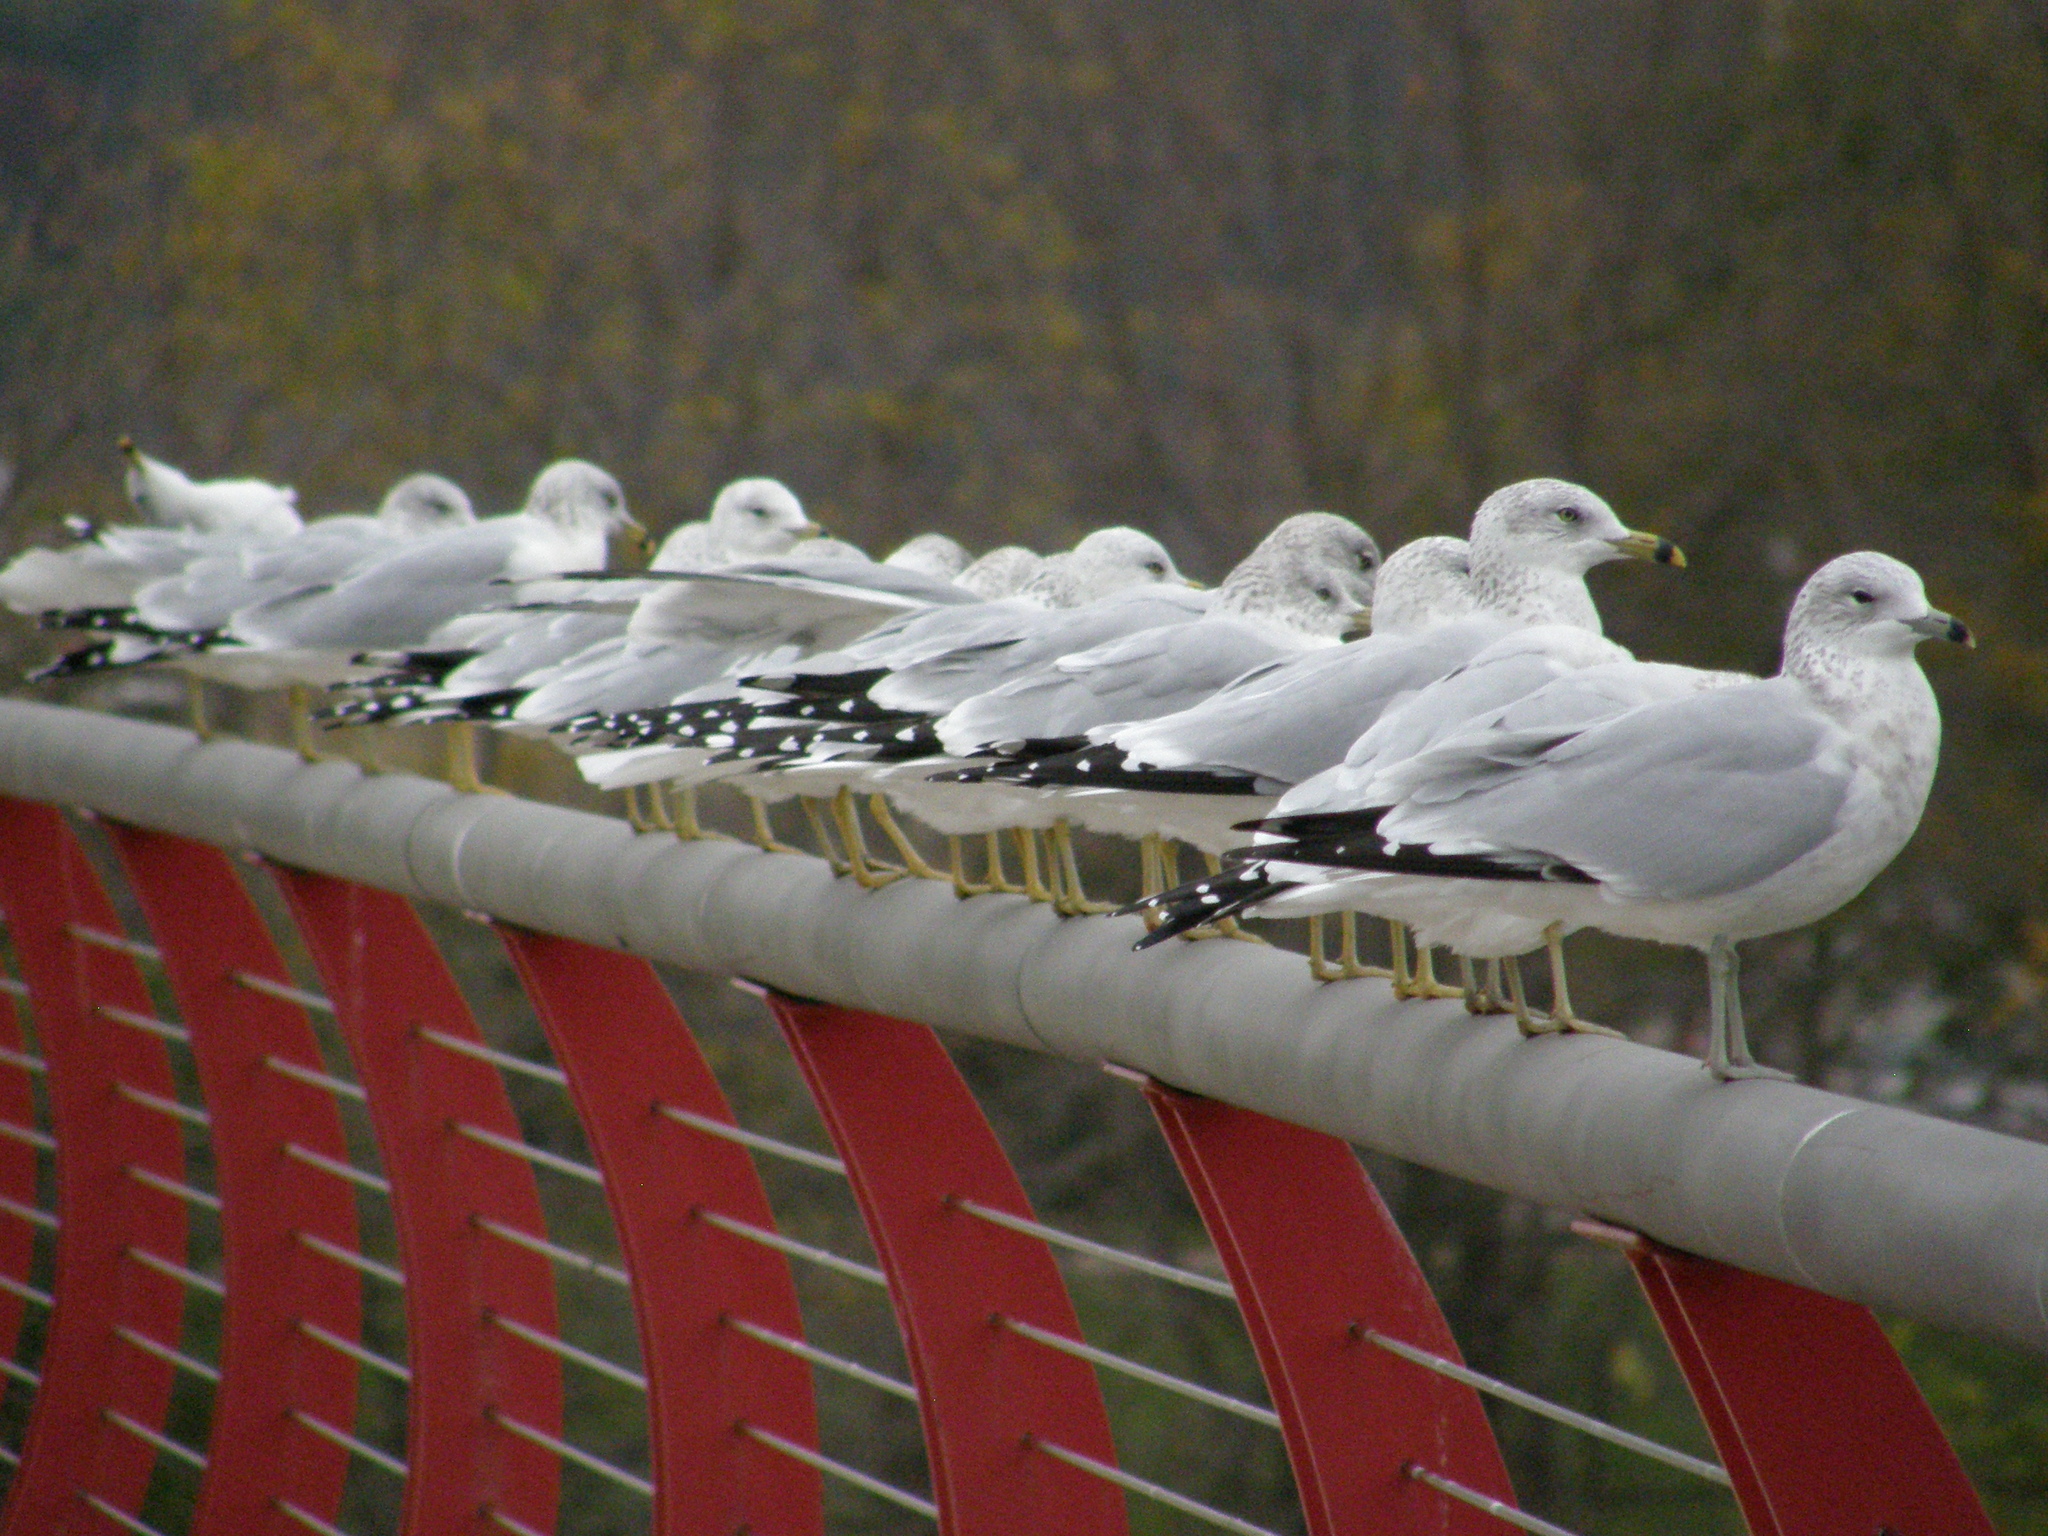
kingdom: Animalia
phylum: Chordata
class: Aves
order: Charadriiformes
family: Laridae
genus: Larus
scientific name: Larus delawarensis
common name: Ring-billed gull
